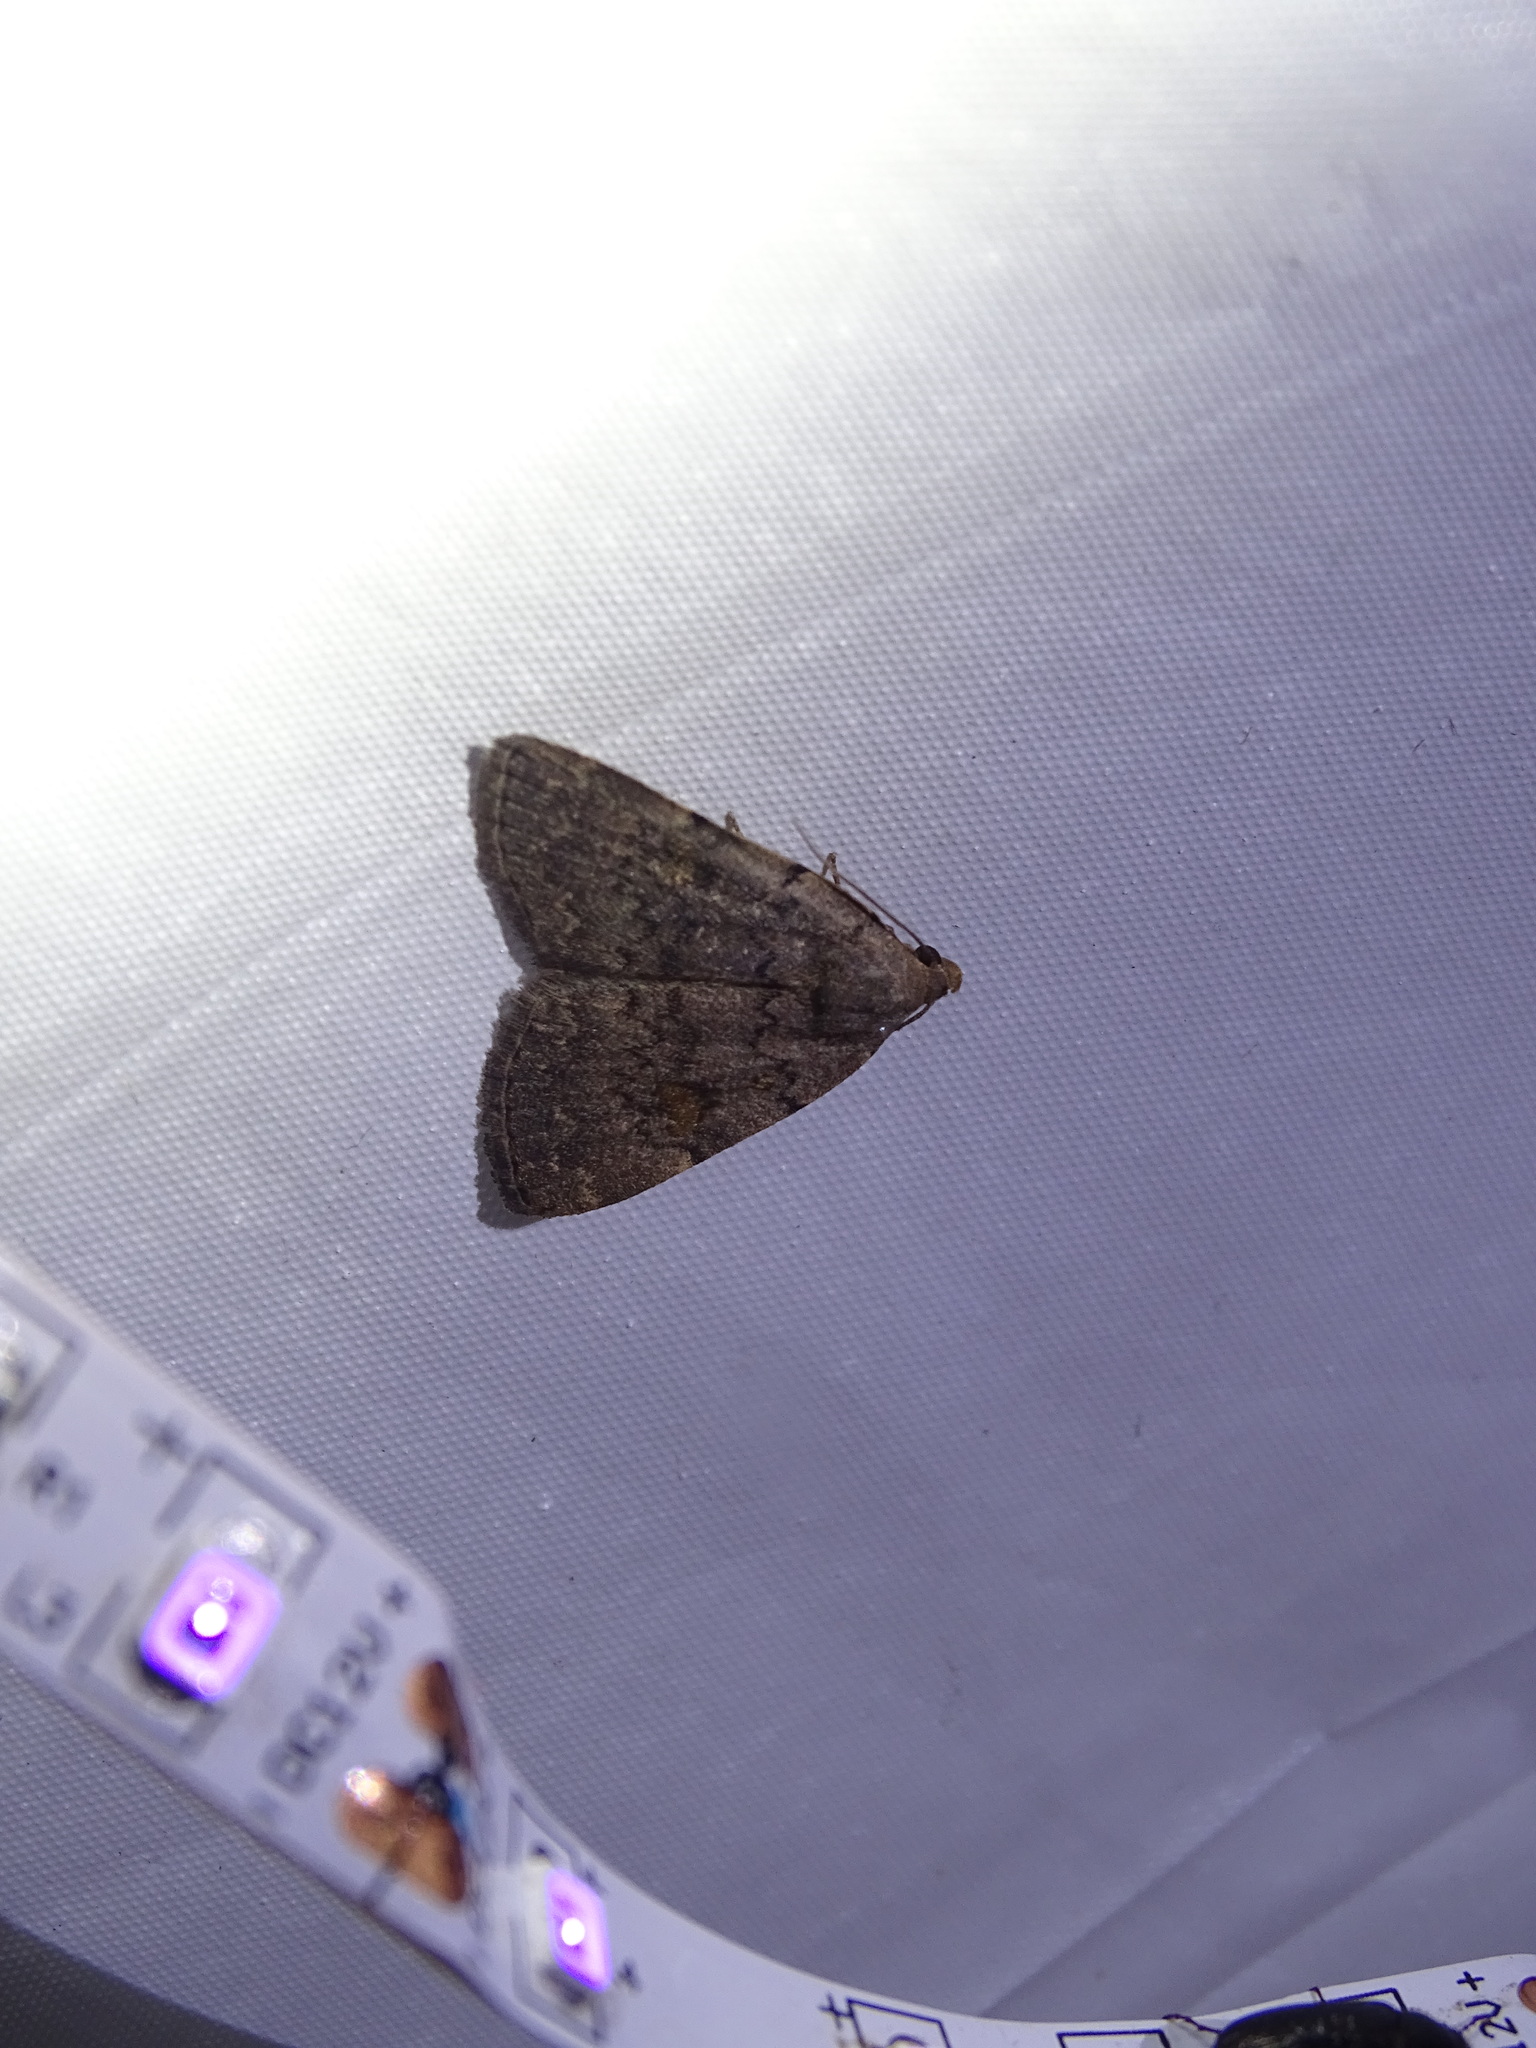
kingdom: Animalia
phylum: Arthropoda
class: Insecta
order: Lepidoptera
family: Erebidae
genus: Idia
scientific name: Idia aemula
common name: Common idia moth
